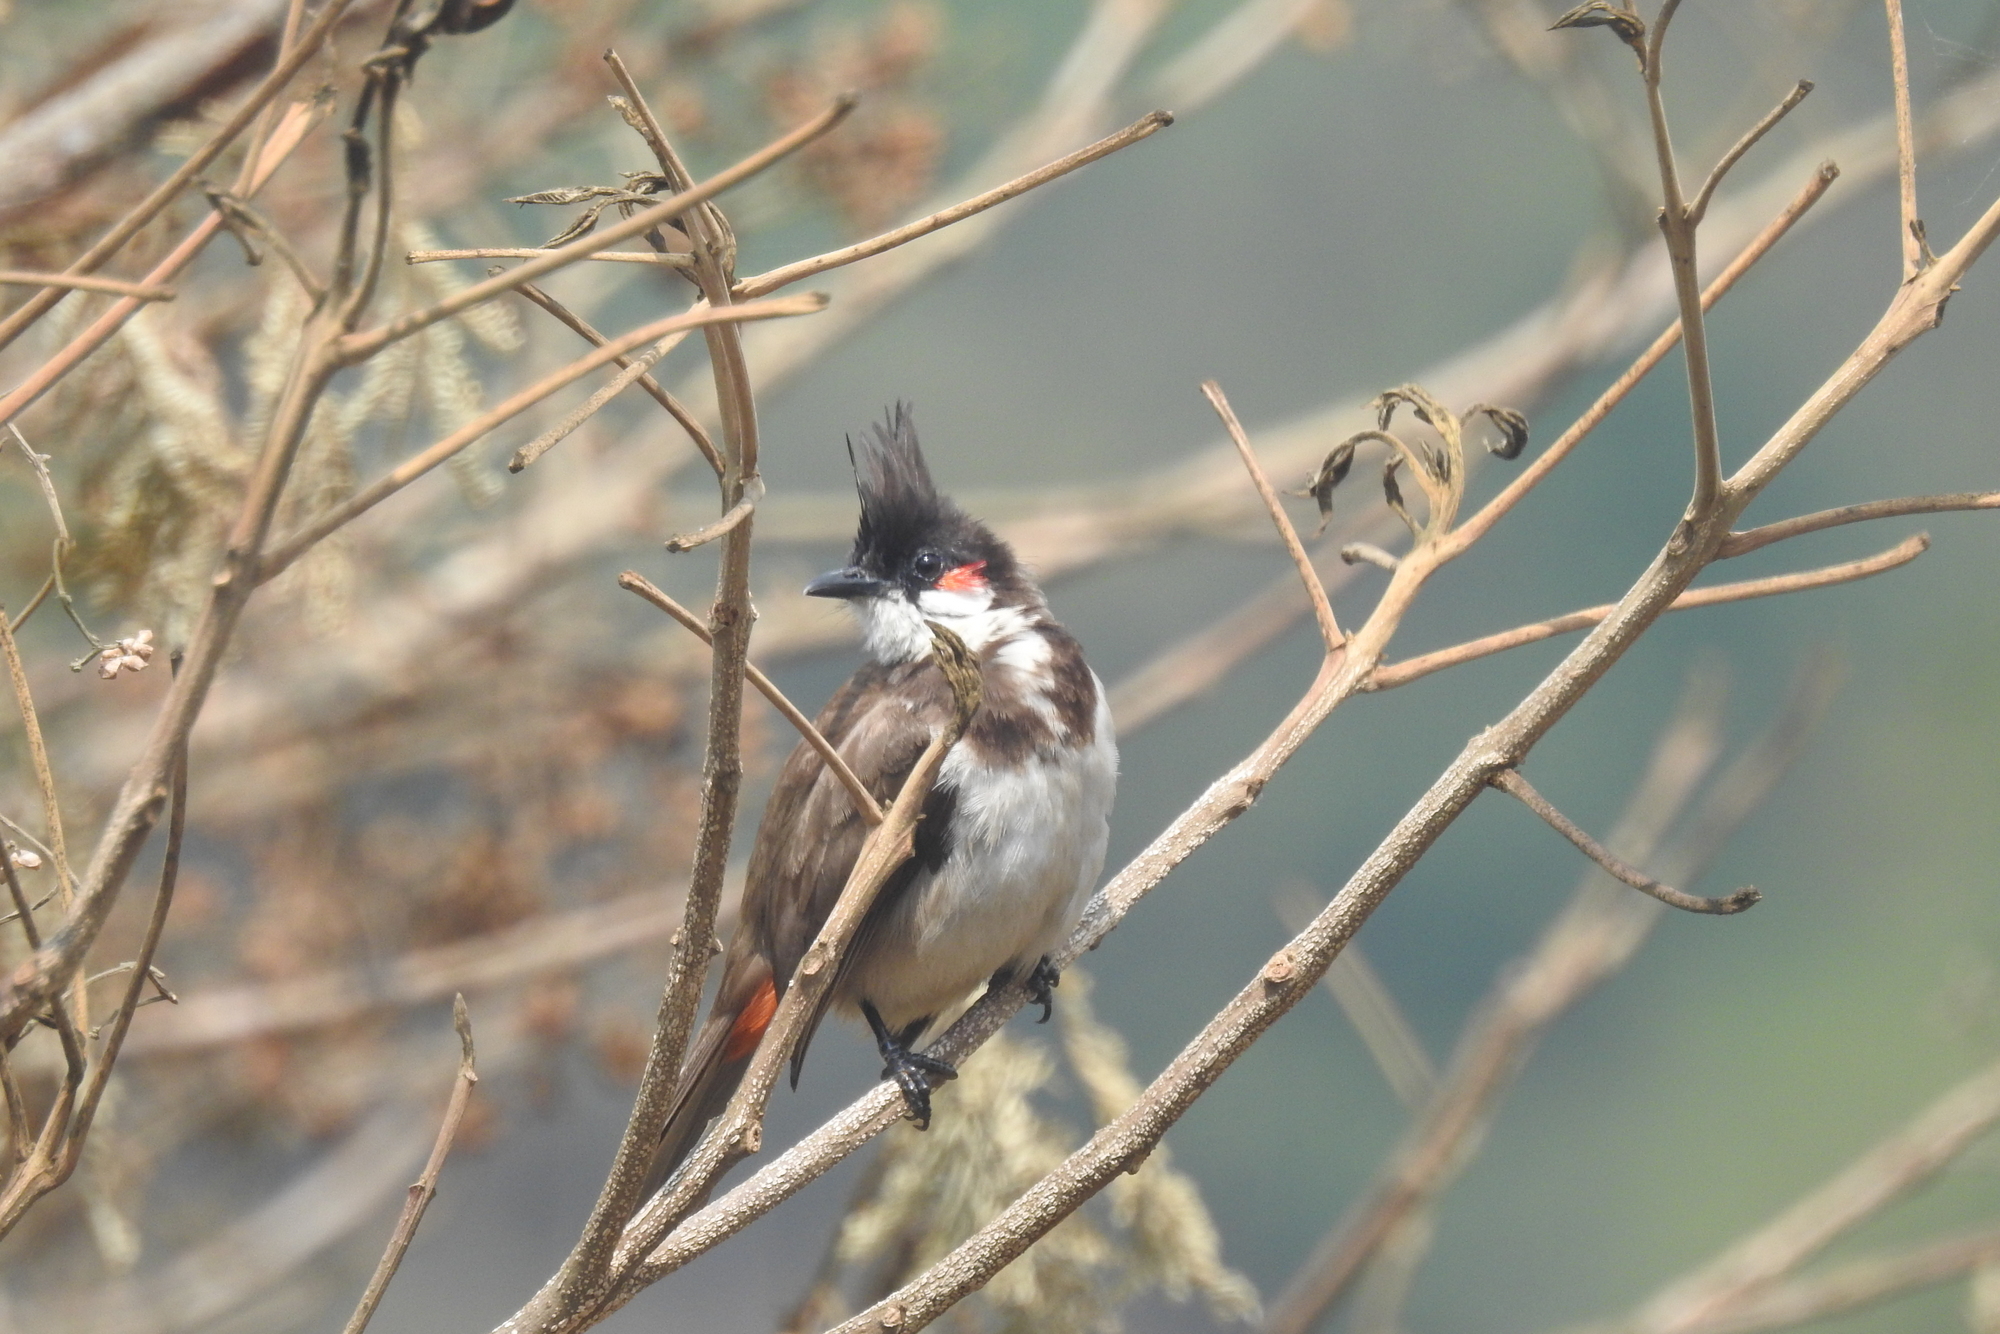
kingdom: Animalia
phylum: Chordata
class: Aves
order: Passeriformes
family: Pycnonotidae
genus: Pycnonotus
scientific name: Pycnonotus jocosus
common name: Red-whiskered bulbul
